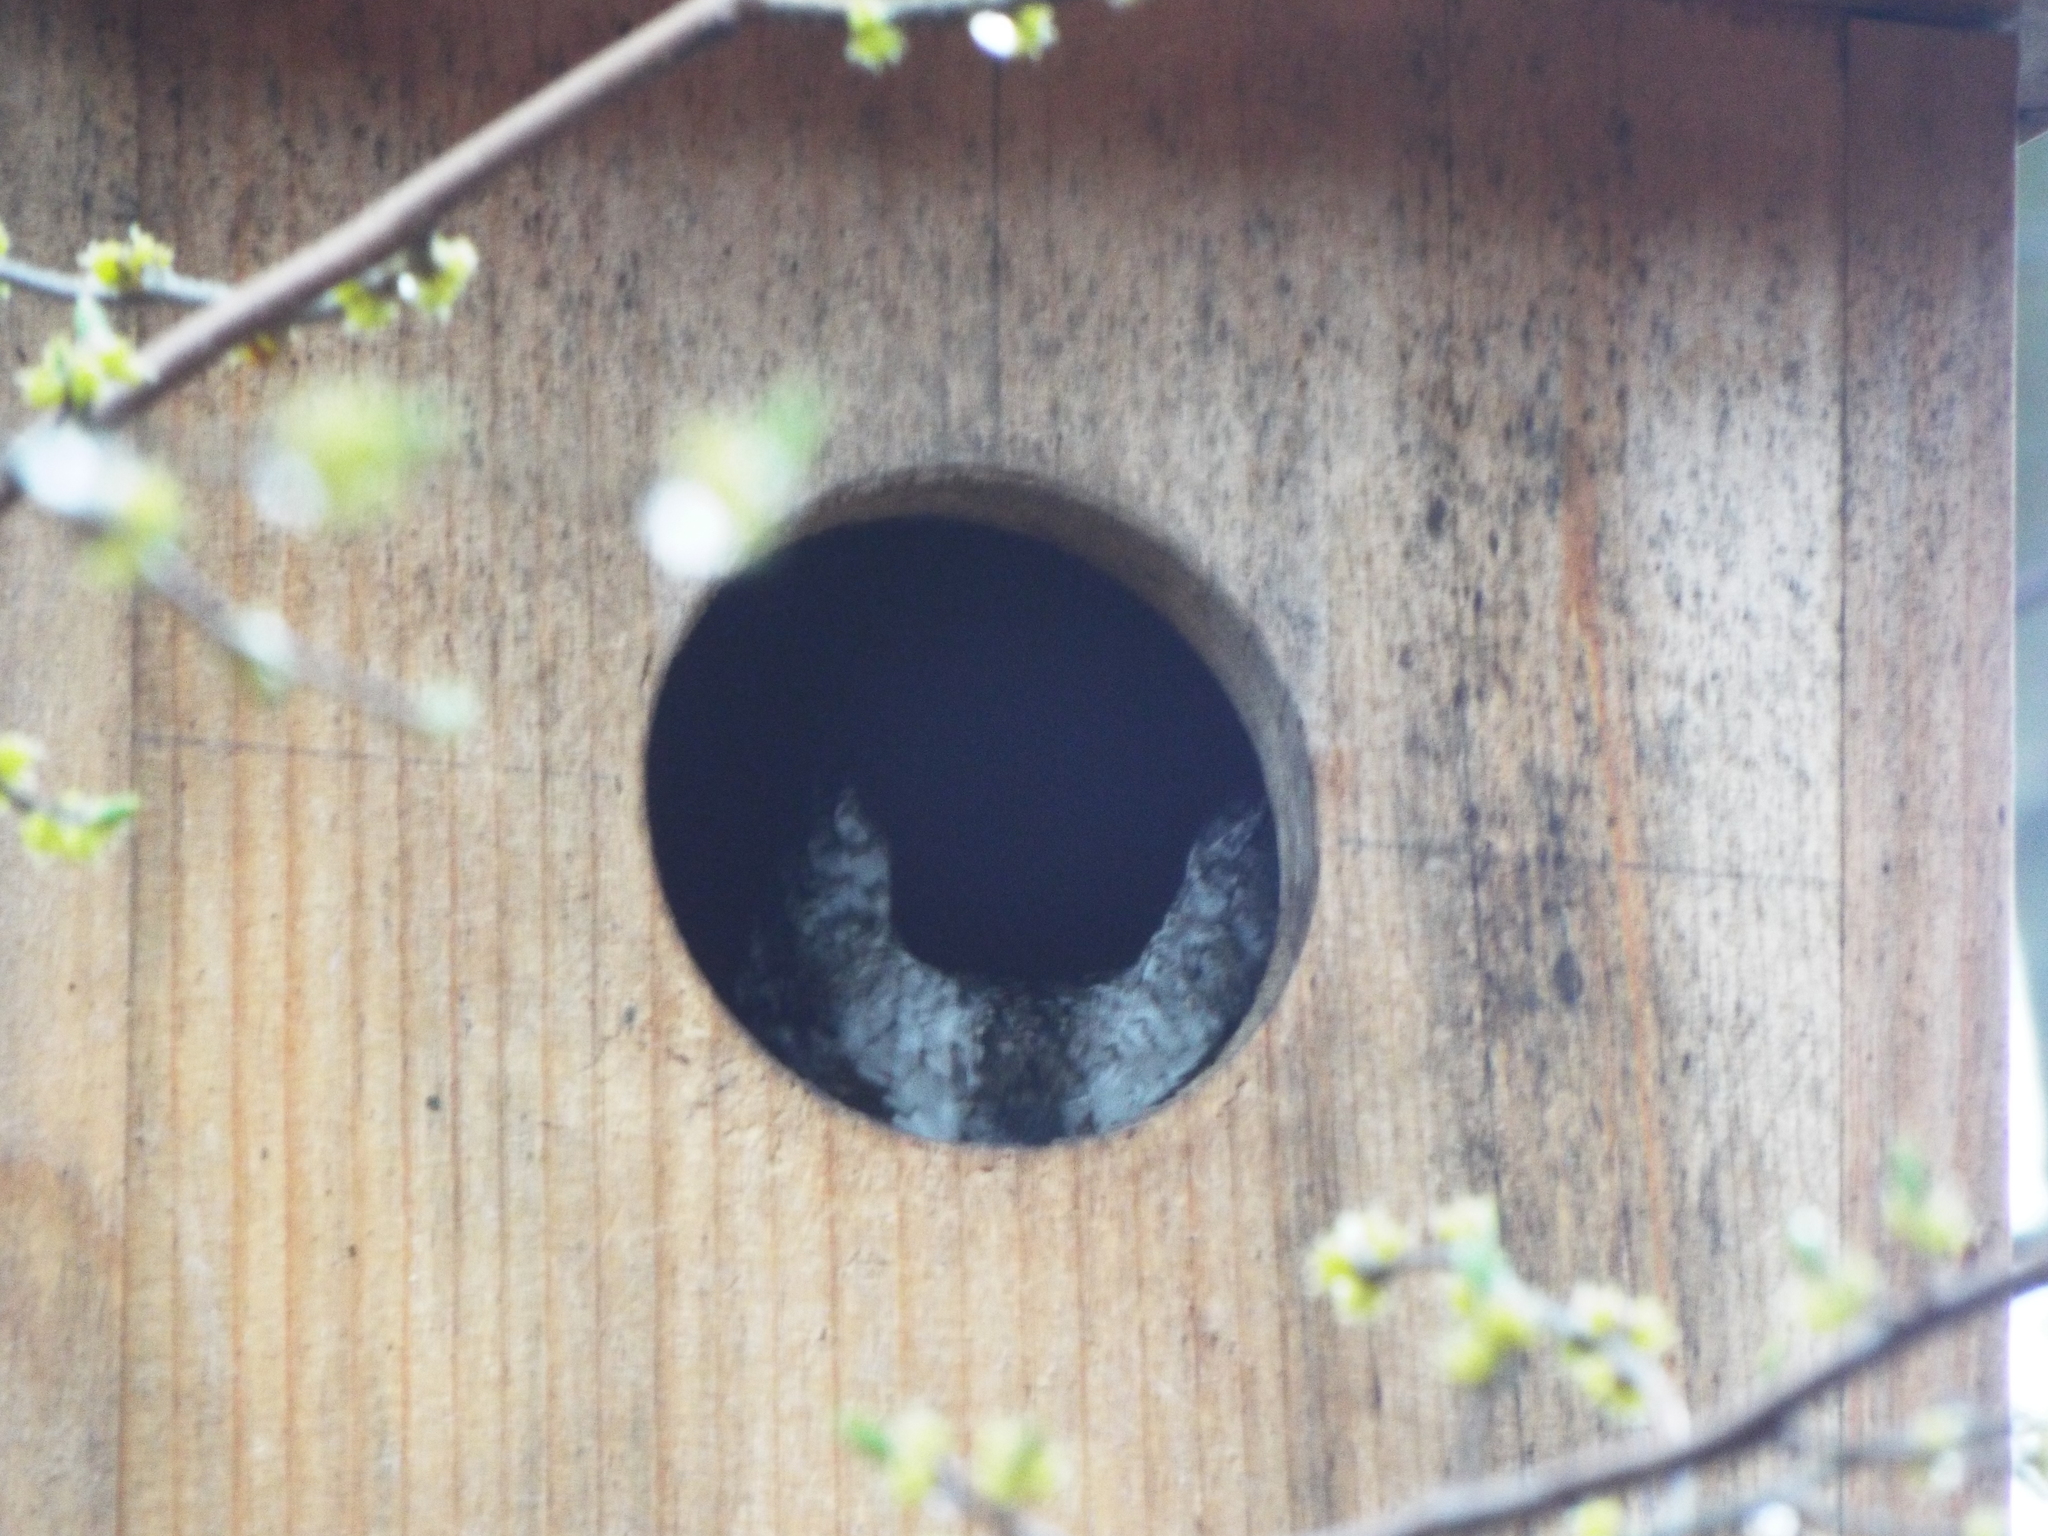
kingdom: Animalia
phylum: Chordata
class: Aves
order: Strigiformes
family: Strigidae
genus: Megascops
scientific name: Megascops asio
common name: Eastern screech-owl
